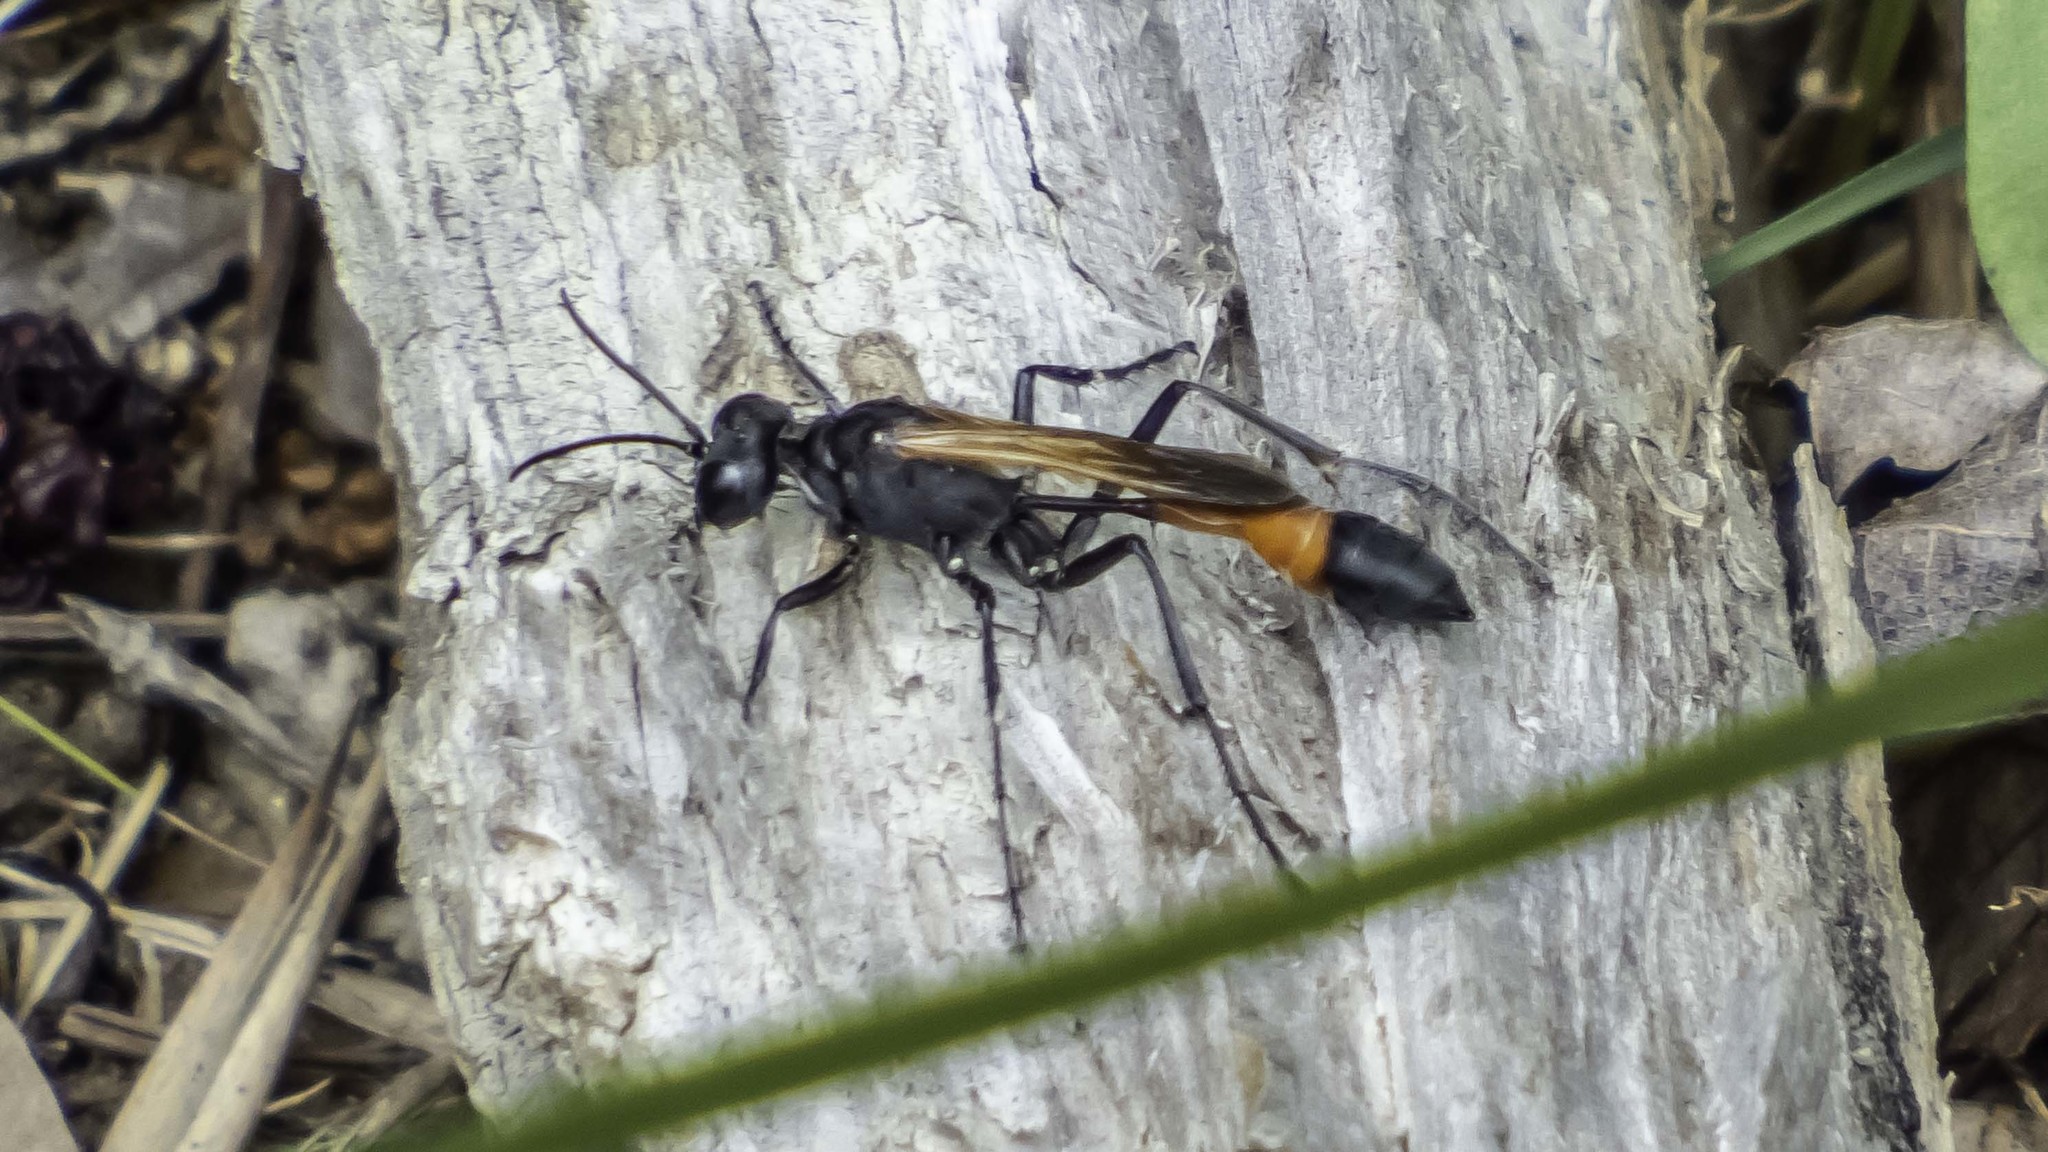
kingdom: Animalia
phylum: Arthropoda
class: Insecta
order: Hymenoptera
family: Sphecidae
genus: Ammophila
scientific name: Ammophila pictipennis
